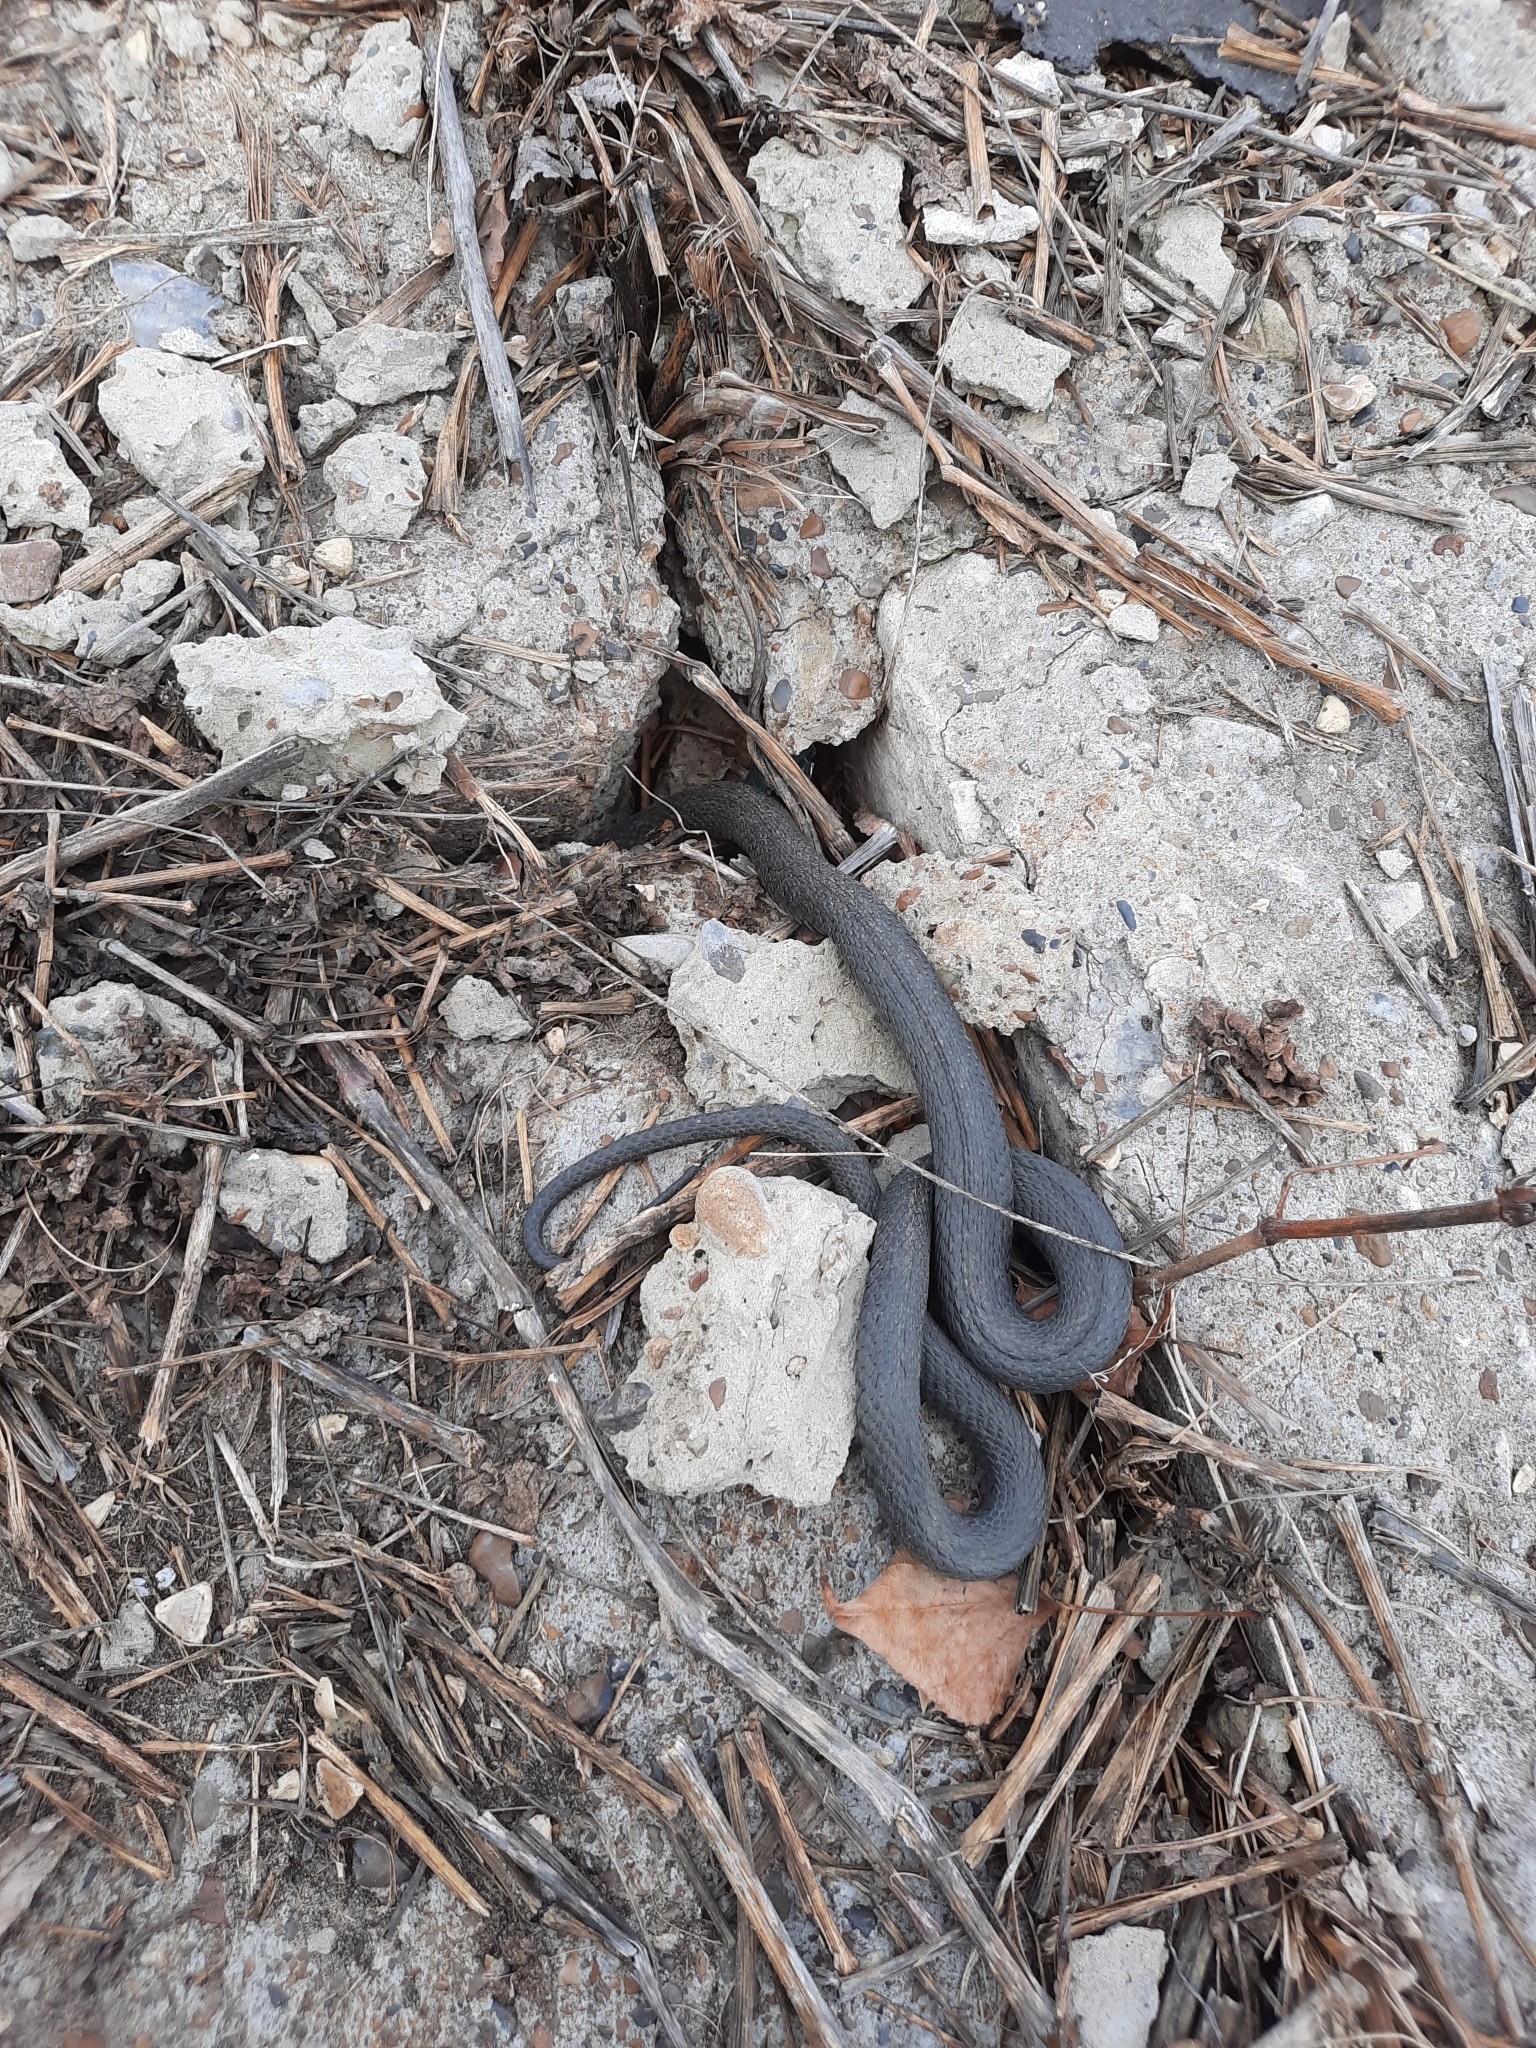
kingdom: Animalia
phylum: Chordata
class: Squamata
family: Colubridae
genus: Natrix
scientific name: Natrix natrix
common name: Grass snake
